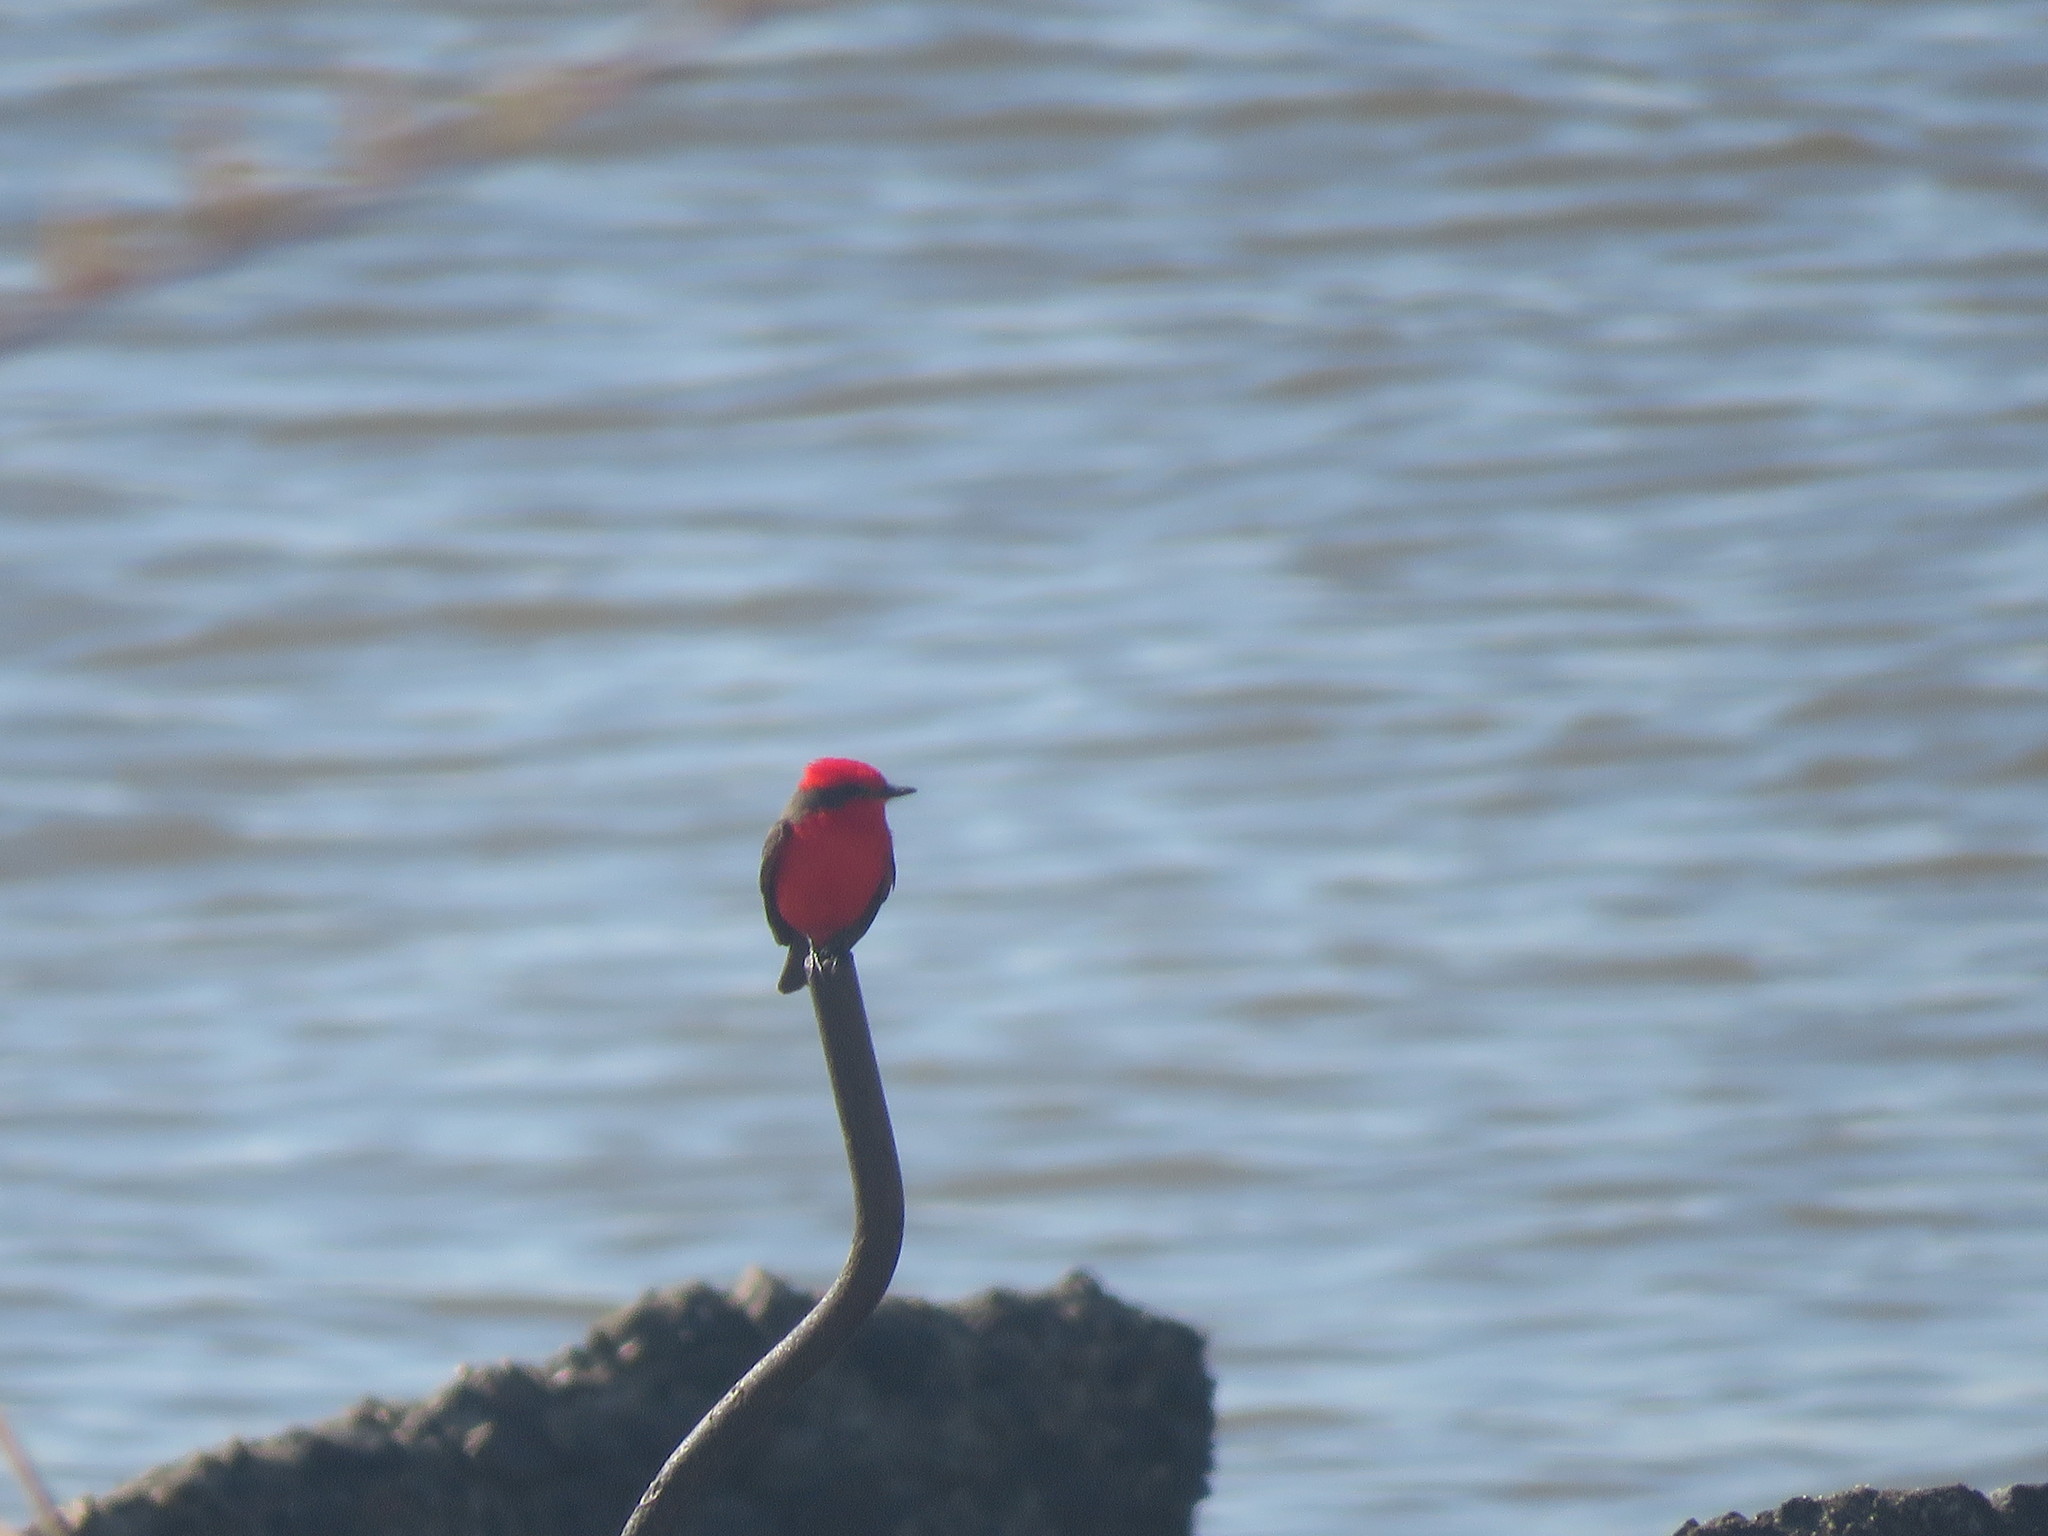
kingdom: Animalia
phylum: Chordata
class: Aves
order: Passeriformes
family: Tyrannidae
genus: Pyrocephalus
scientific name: Pyrocephalus rubinus
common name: Vermilion flycatcher
